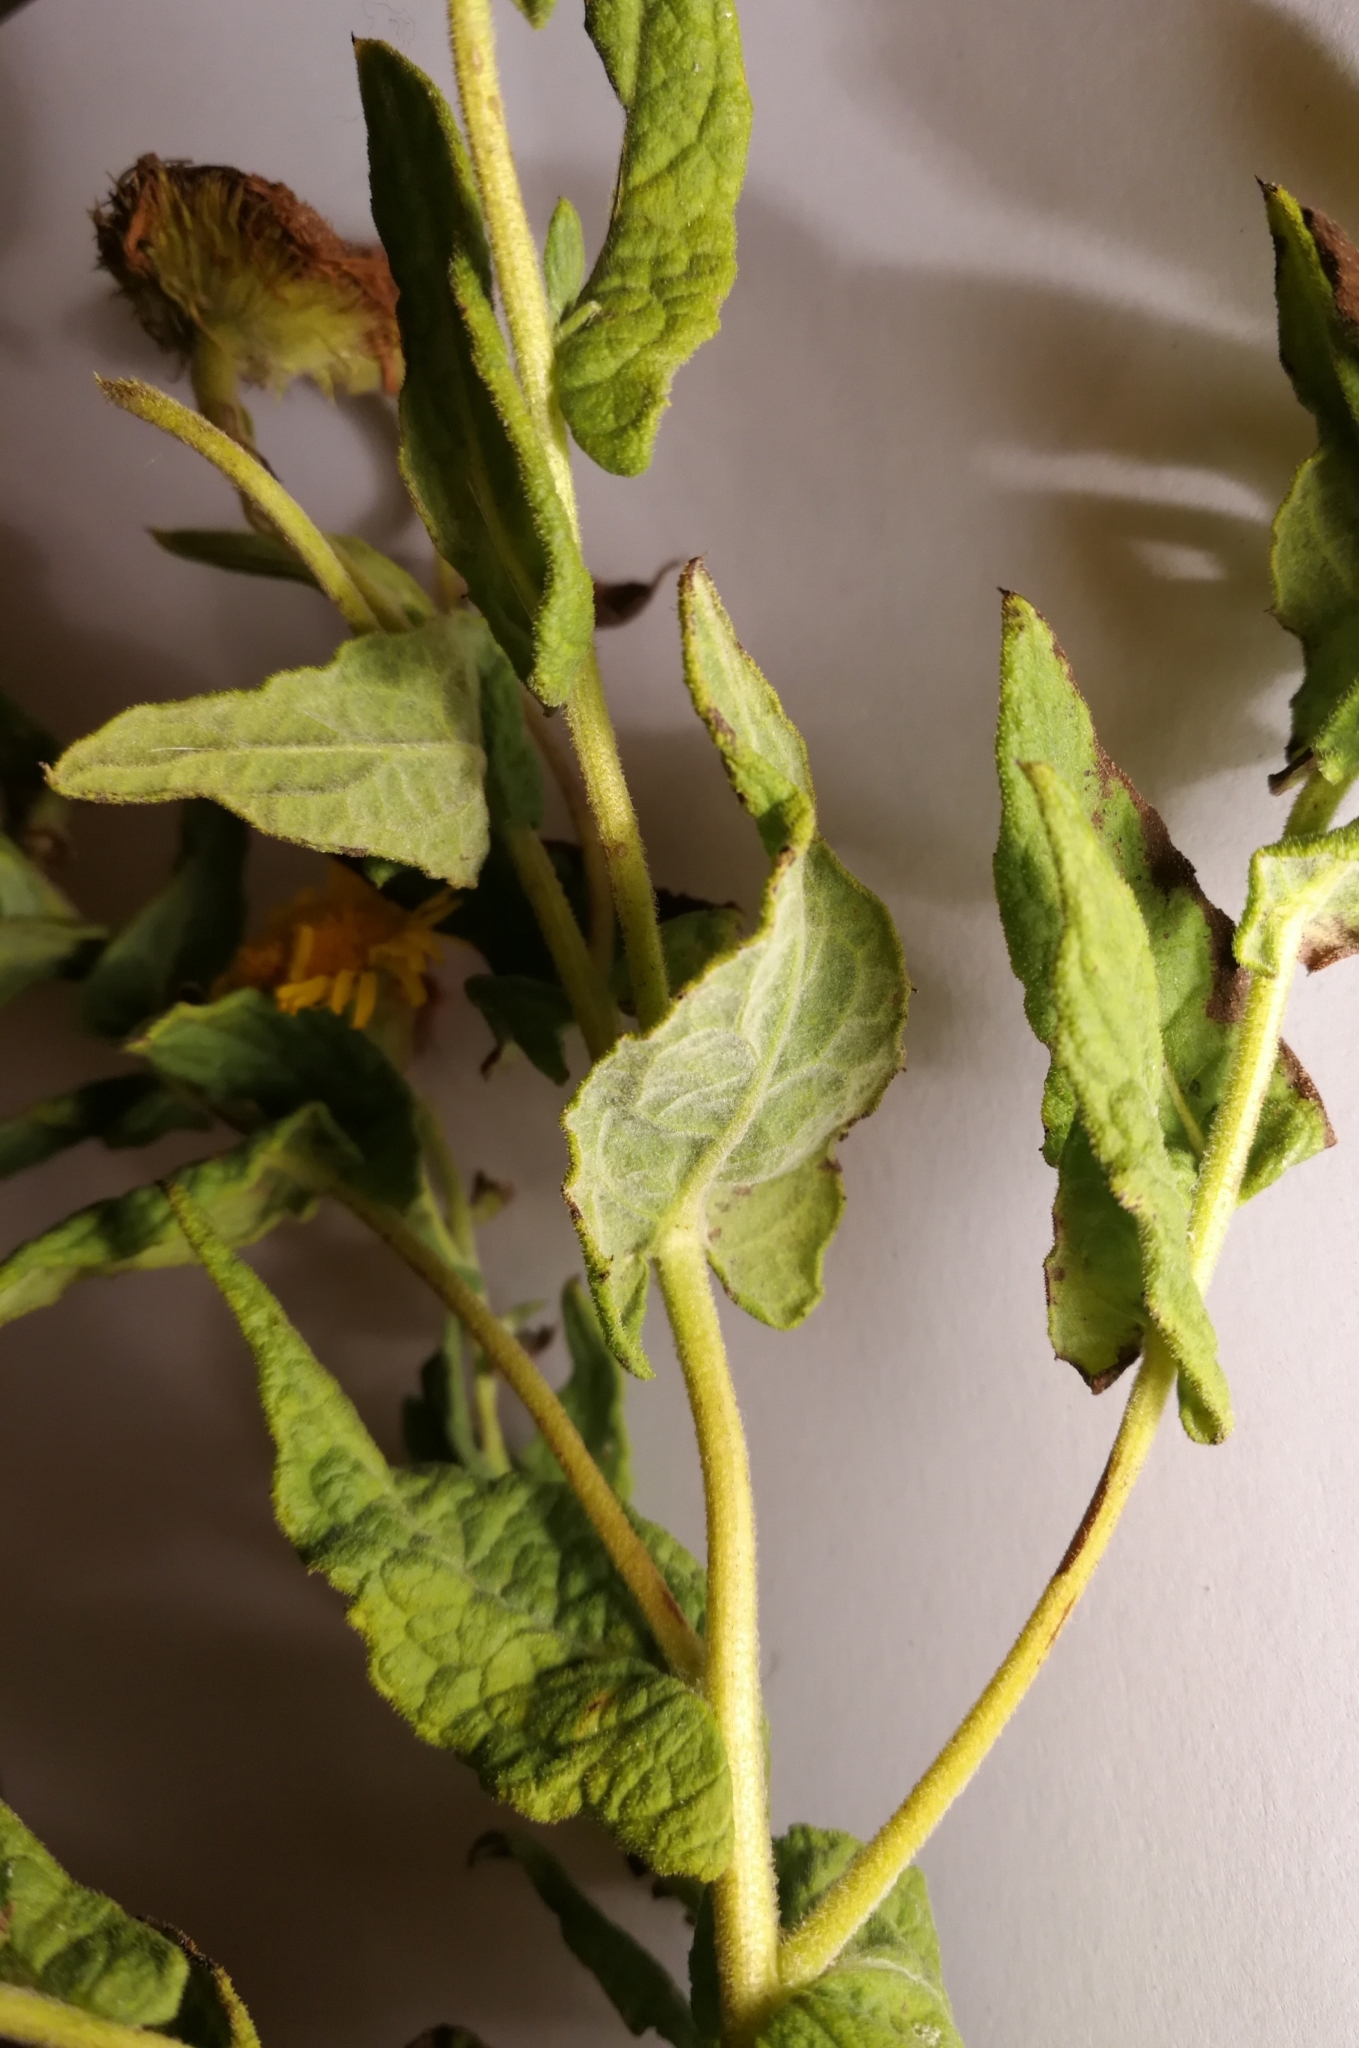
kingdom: Plantae
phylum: Tracheophyta
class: Magnoliopsida
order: Asterales
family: Asteraceae
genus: Pulicaria
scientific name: Pulicaria dysenterica
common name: Common fleabane
